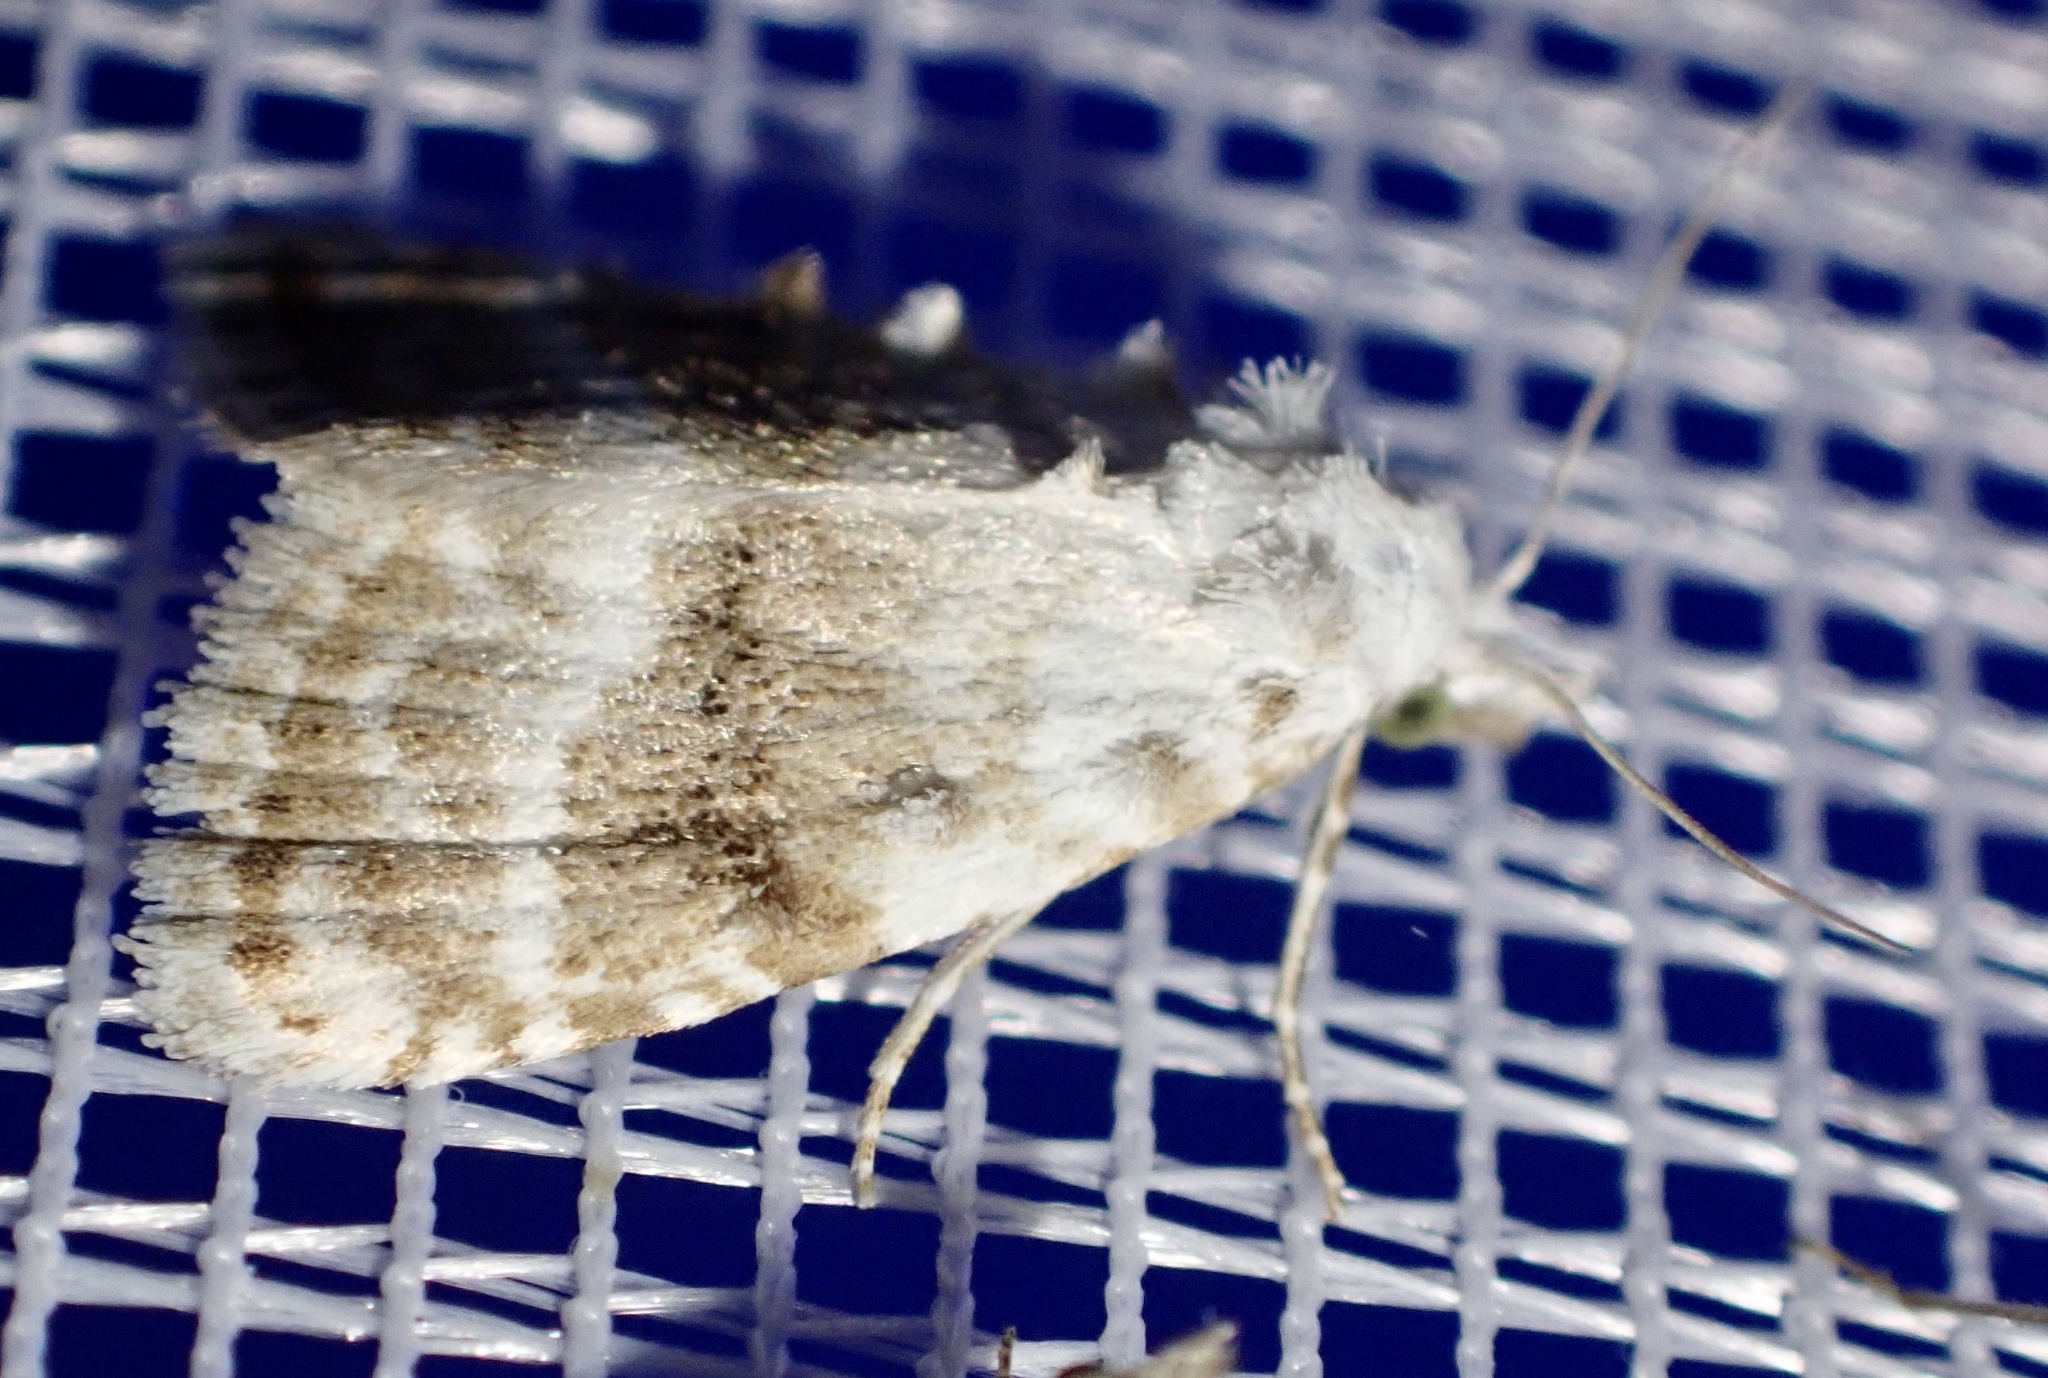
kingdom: Animalia
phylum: Arthropoda
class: Insecta
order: Lepidoptera
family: Nolidae
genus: Meganola
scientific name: Meganola albula
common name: Kent black arches
